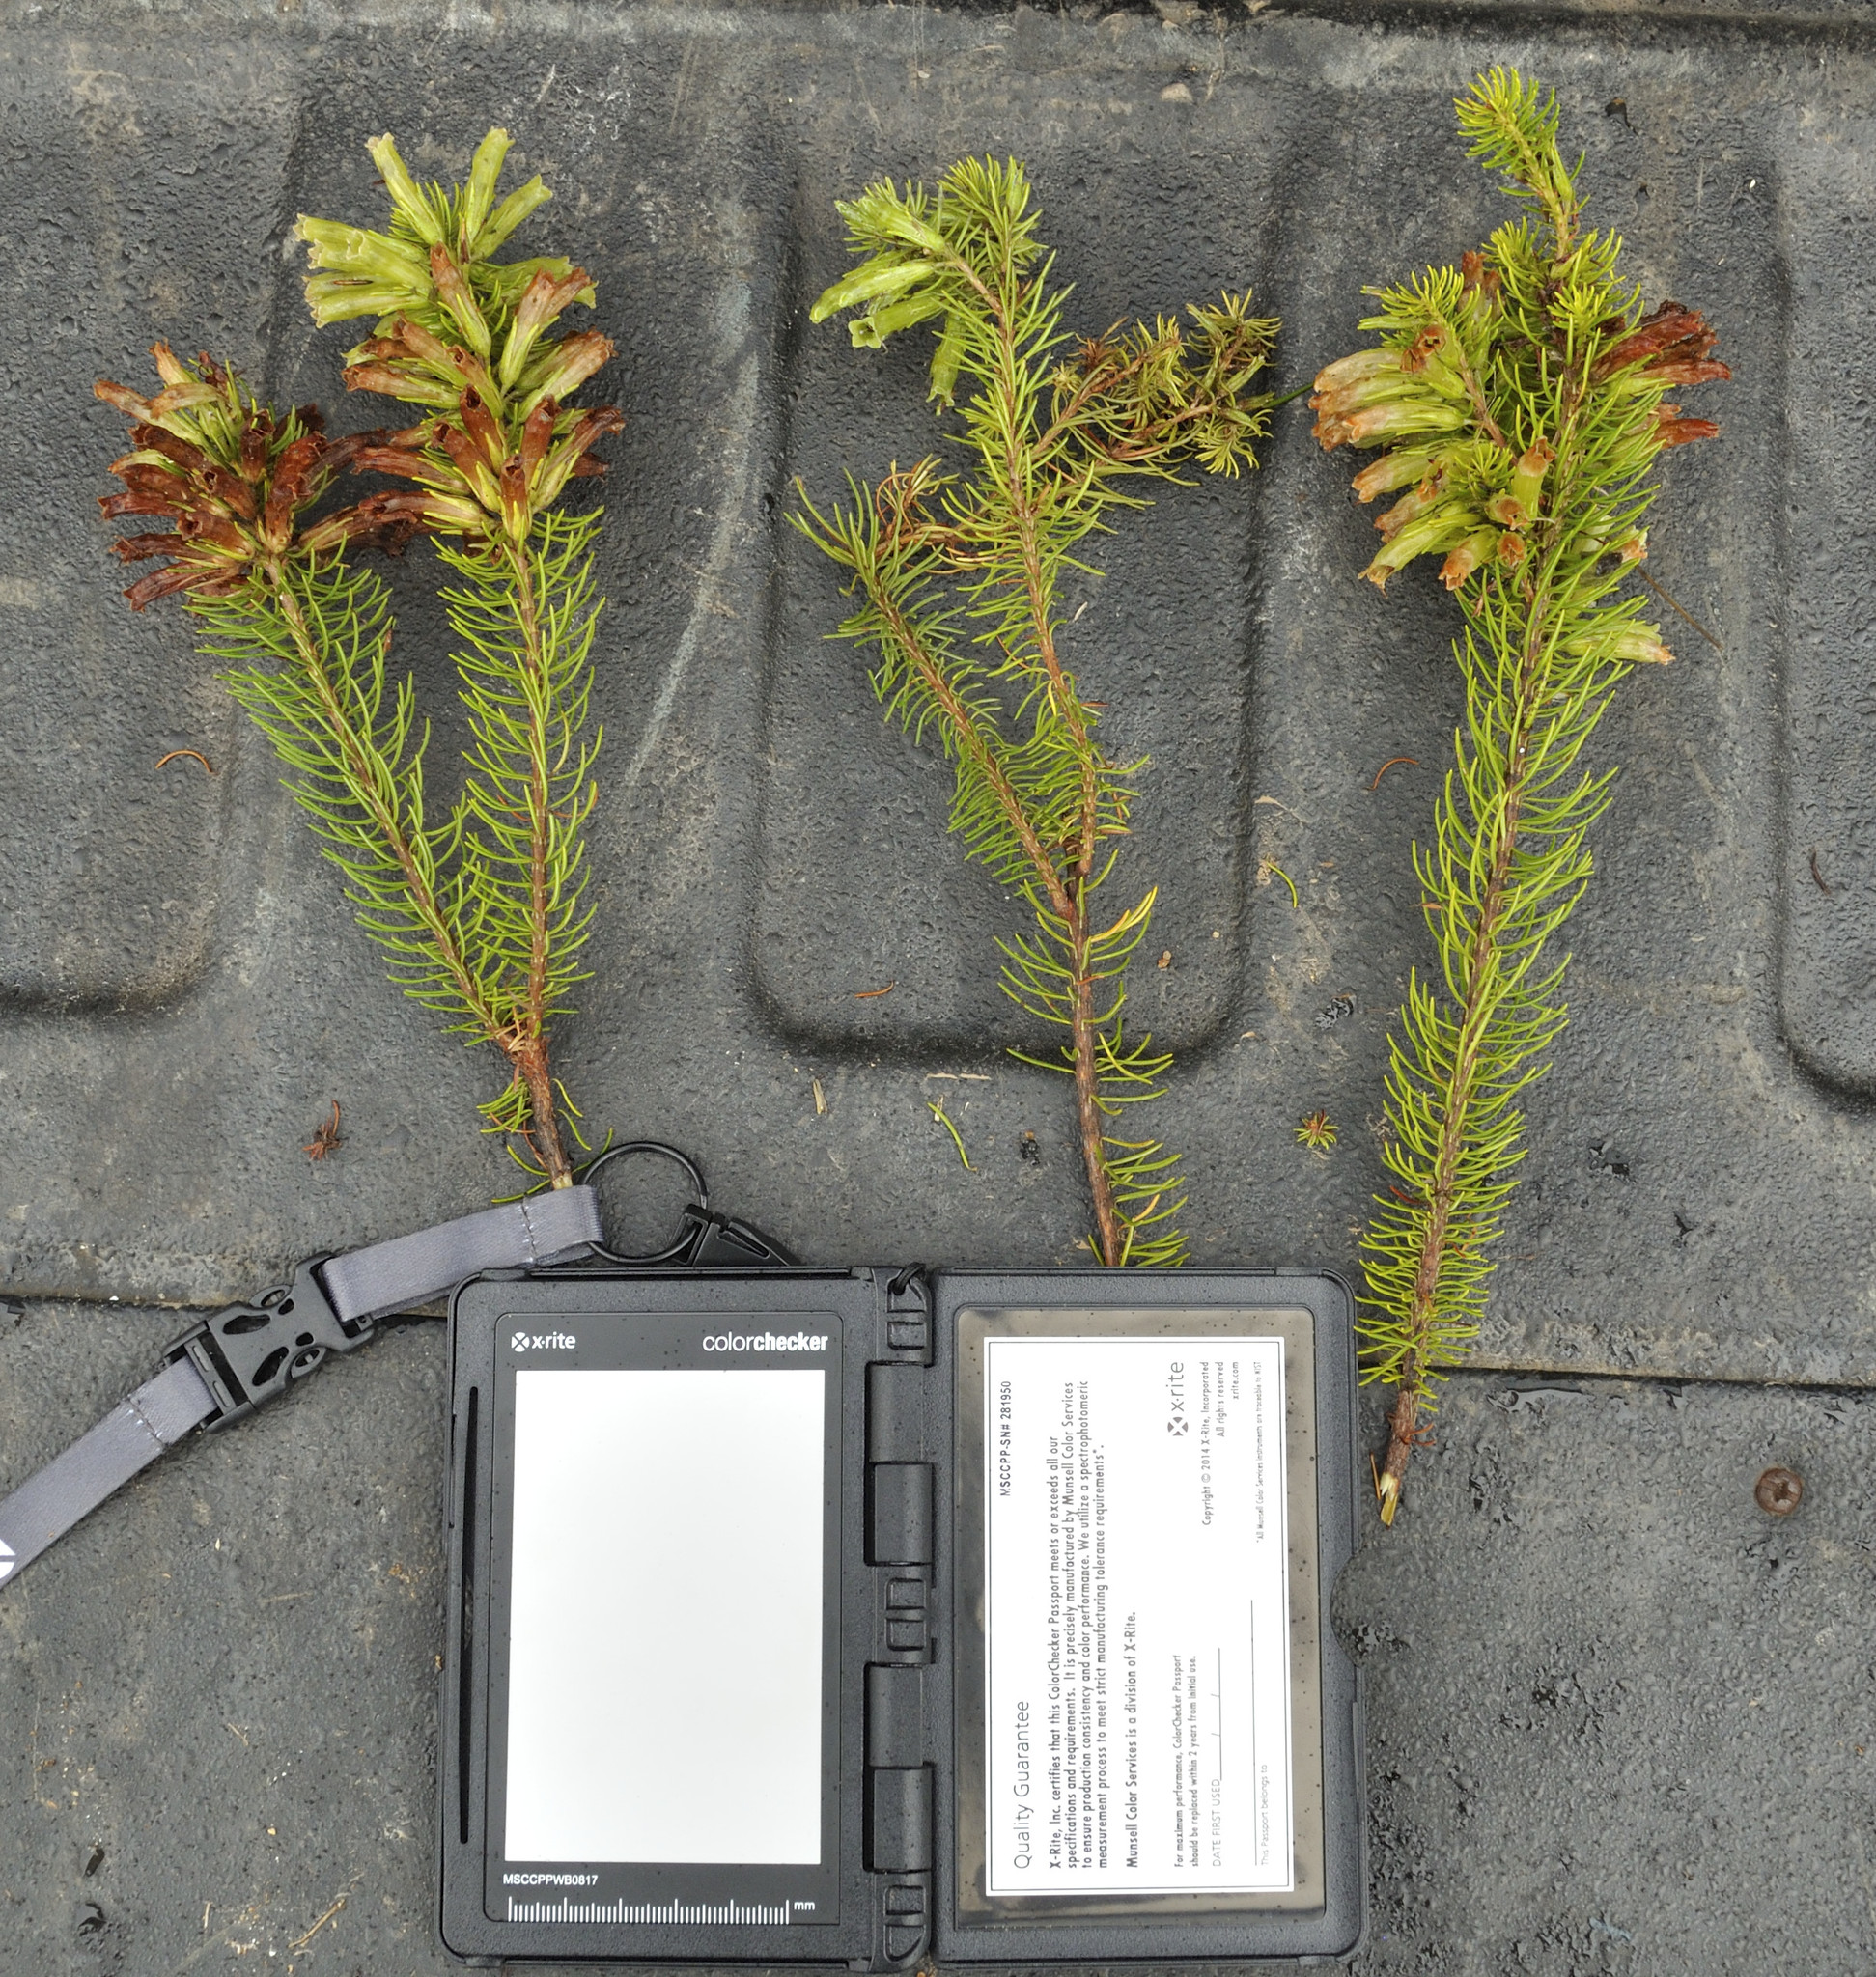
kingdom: Plantae
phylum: Tracheophyta
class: Magnoliopsida
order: Ericales
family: Ericaceae
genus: Erica
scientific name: Erica viscaria
